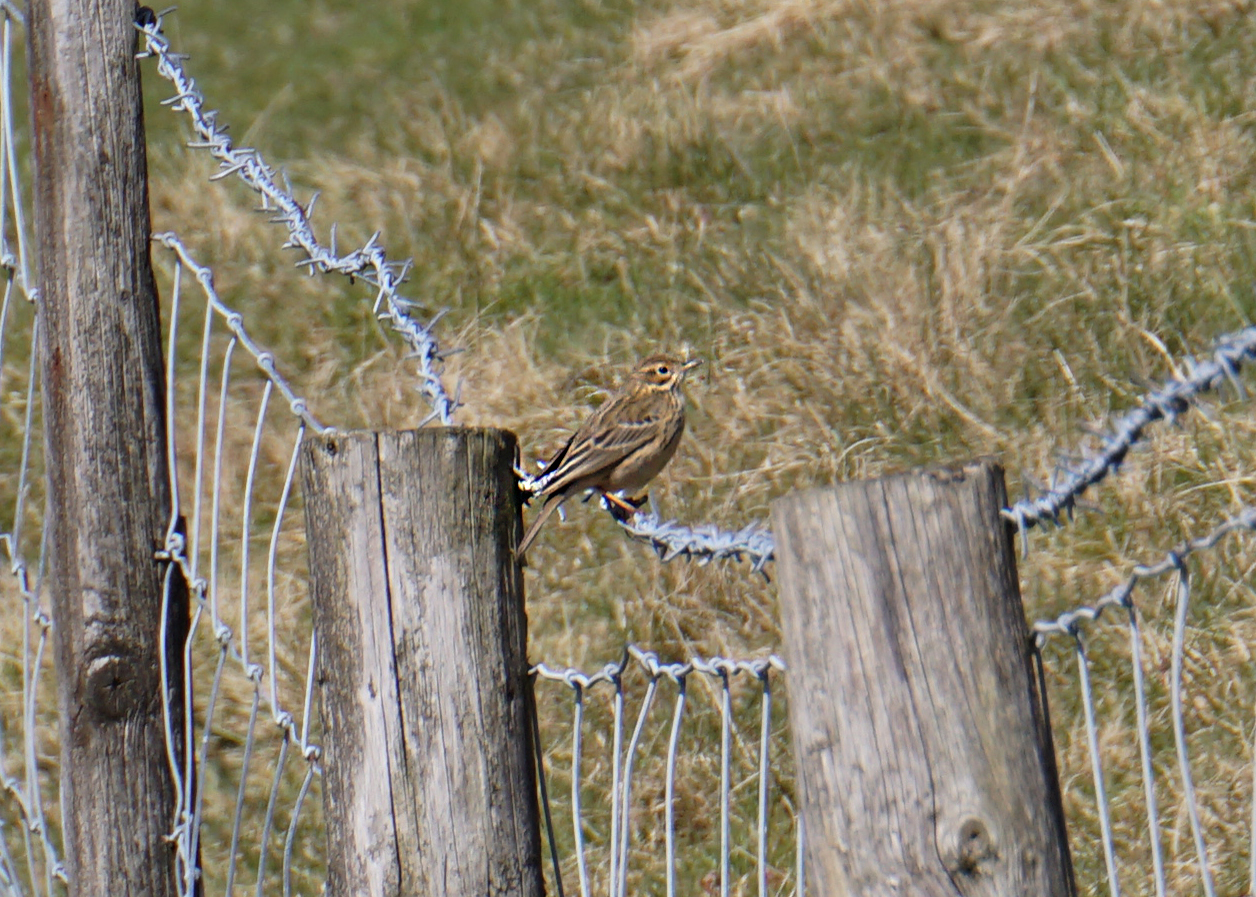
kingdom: Animalia
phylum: Chordata
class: Aves
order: Passeriformes
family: Motacillidae
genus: Anthus
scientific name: Anthus pratensis
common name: Meadow pipit
